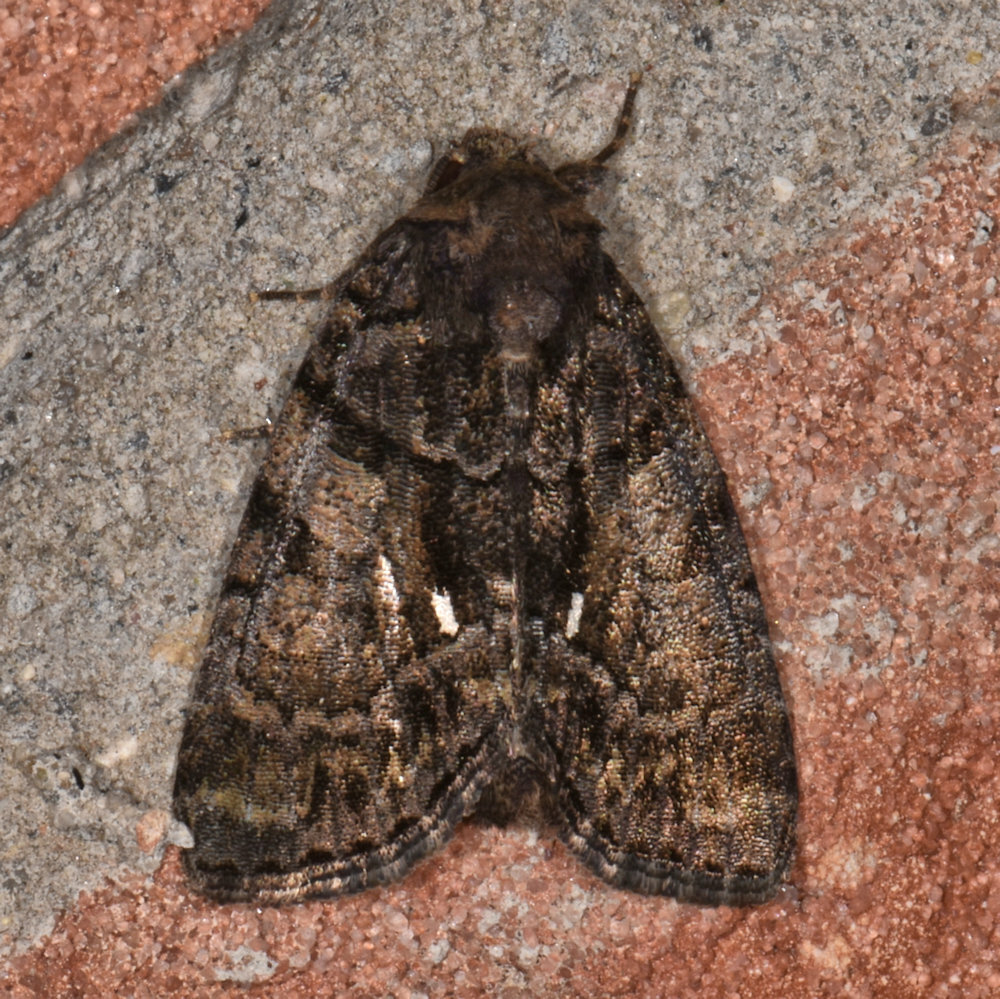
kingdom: Animalia
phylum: Arthropoda
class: Insecta
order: Lepidoptera
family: Noctuidae
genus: Chytonix
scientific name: Chytonix palliatricula
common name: Cloaked marvel
